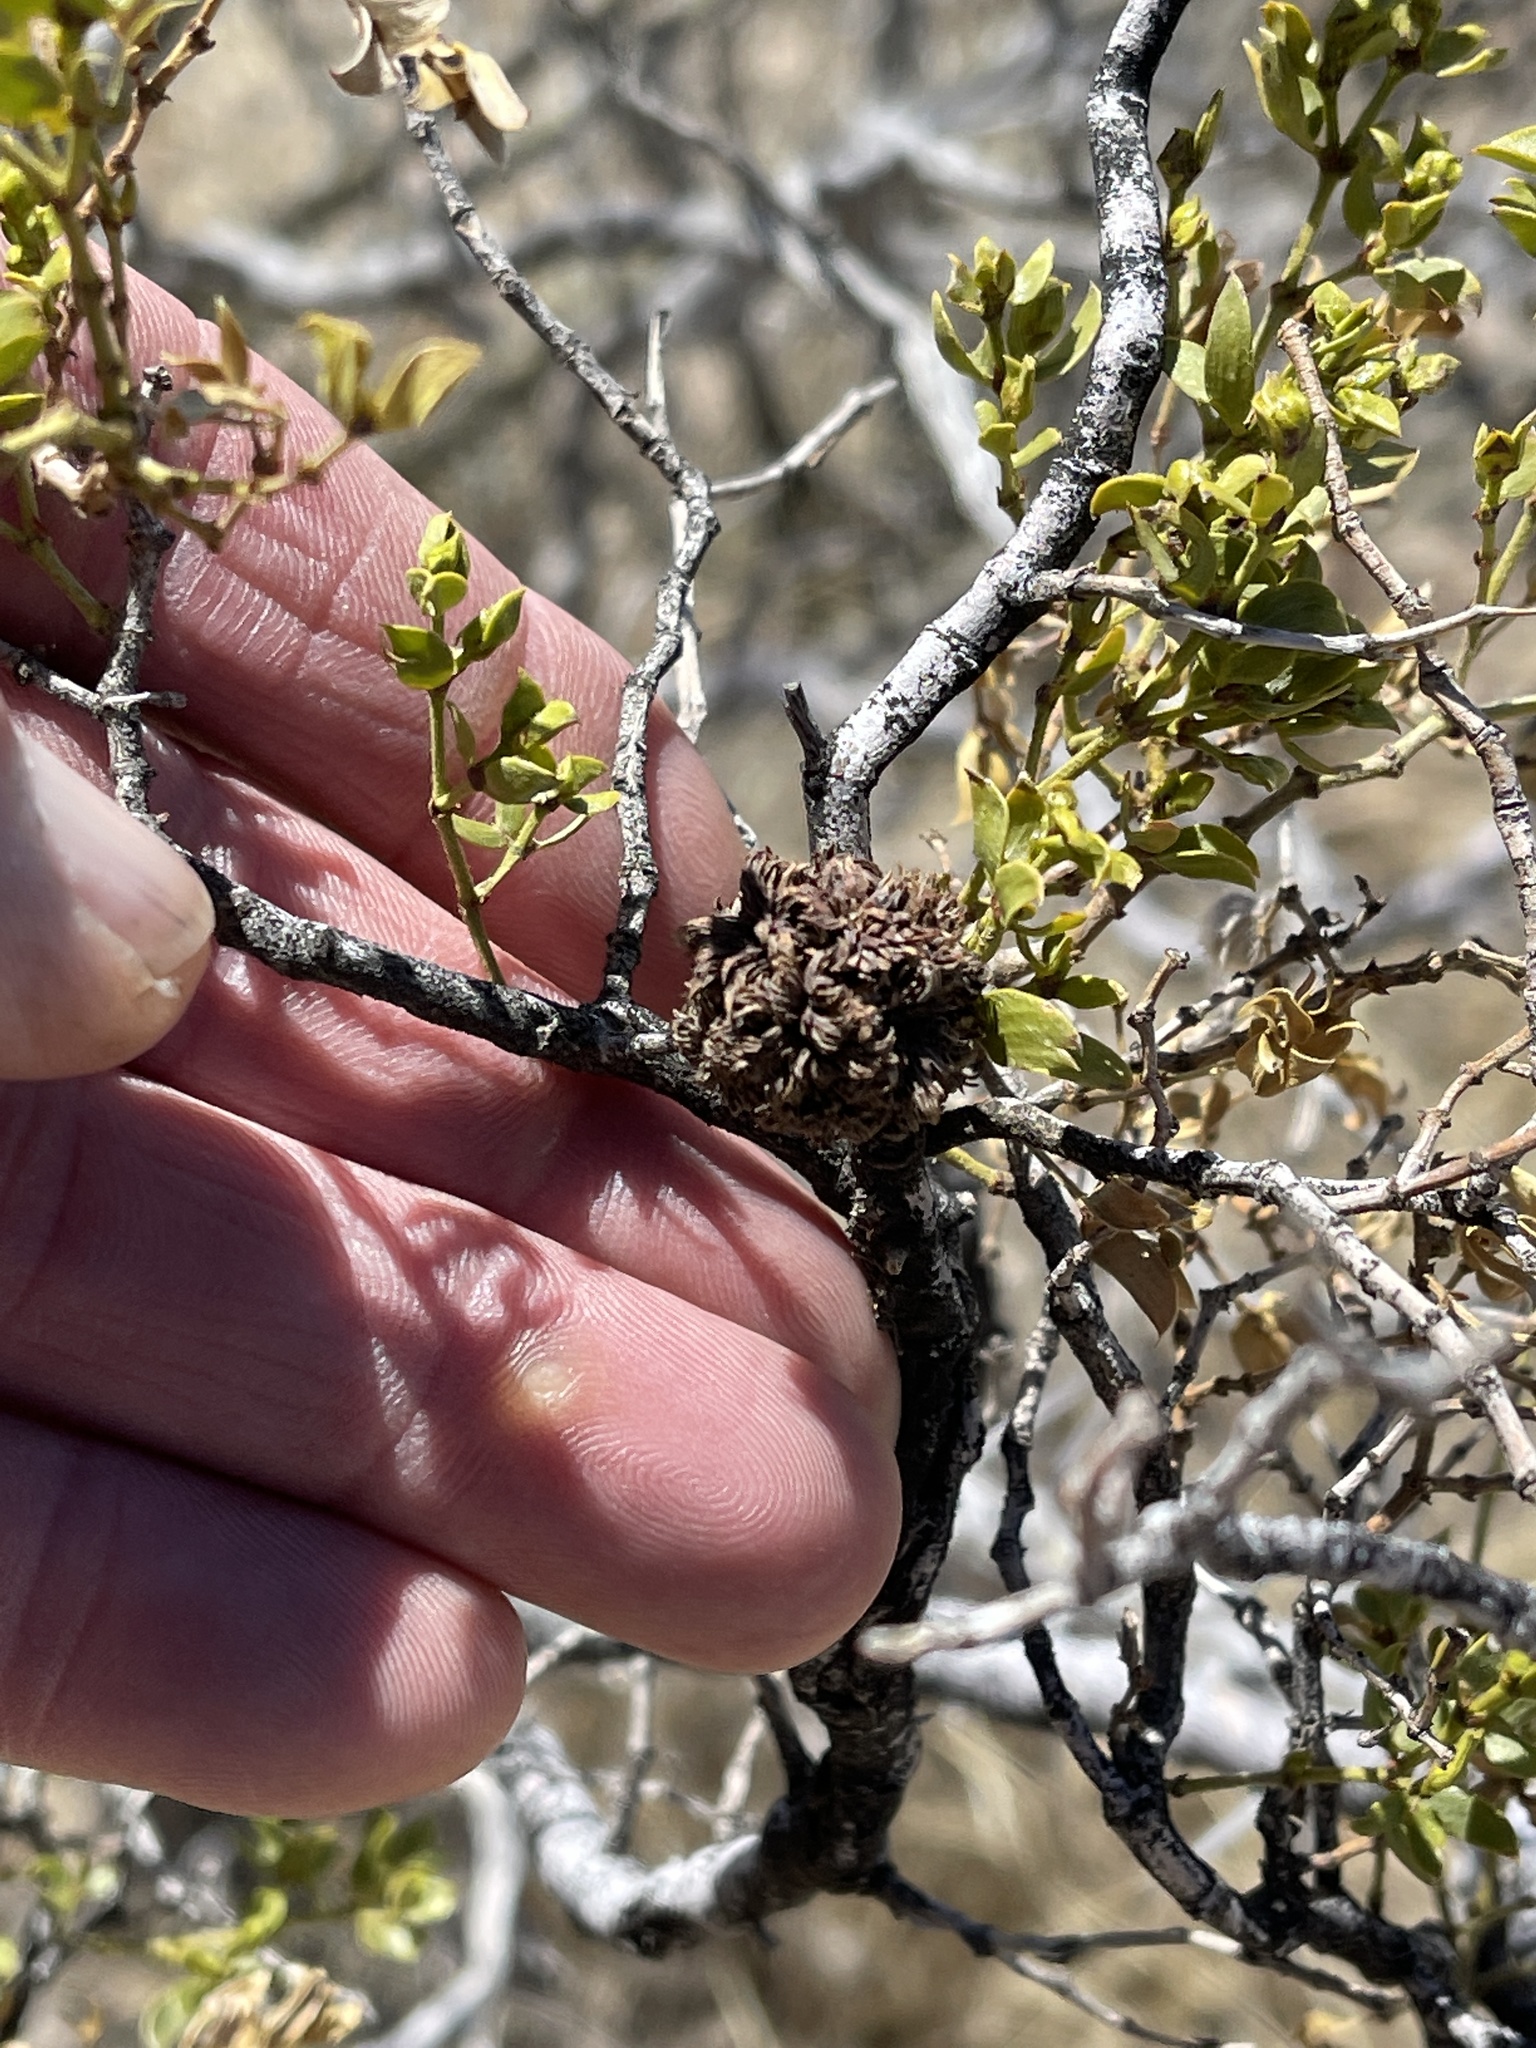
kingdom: Animalia
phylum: Arthropoda
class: Insecta
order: Diptera
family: Cecidomyiidae
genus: Asphondylia
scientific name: Asphondylia auripila
